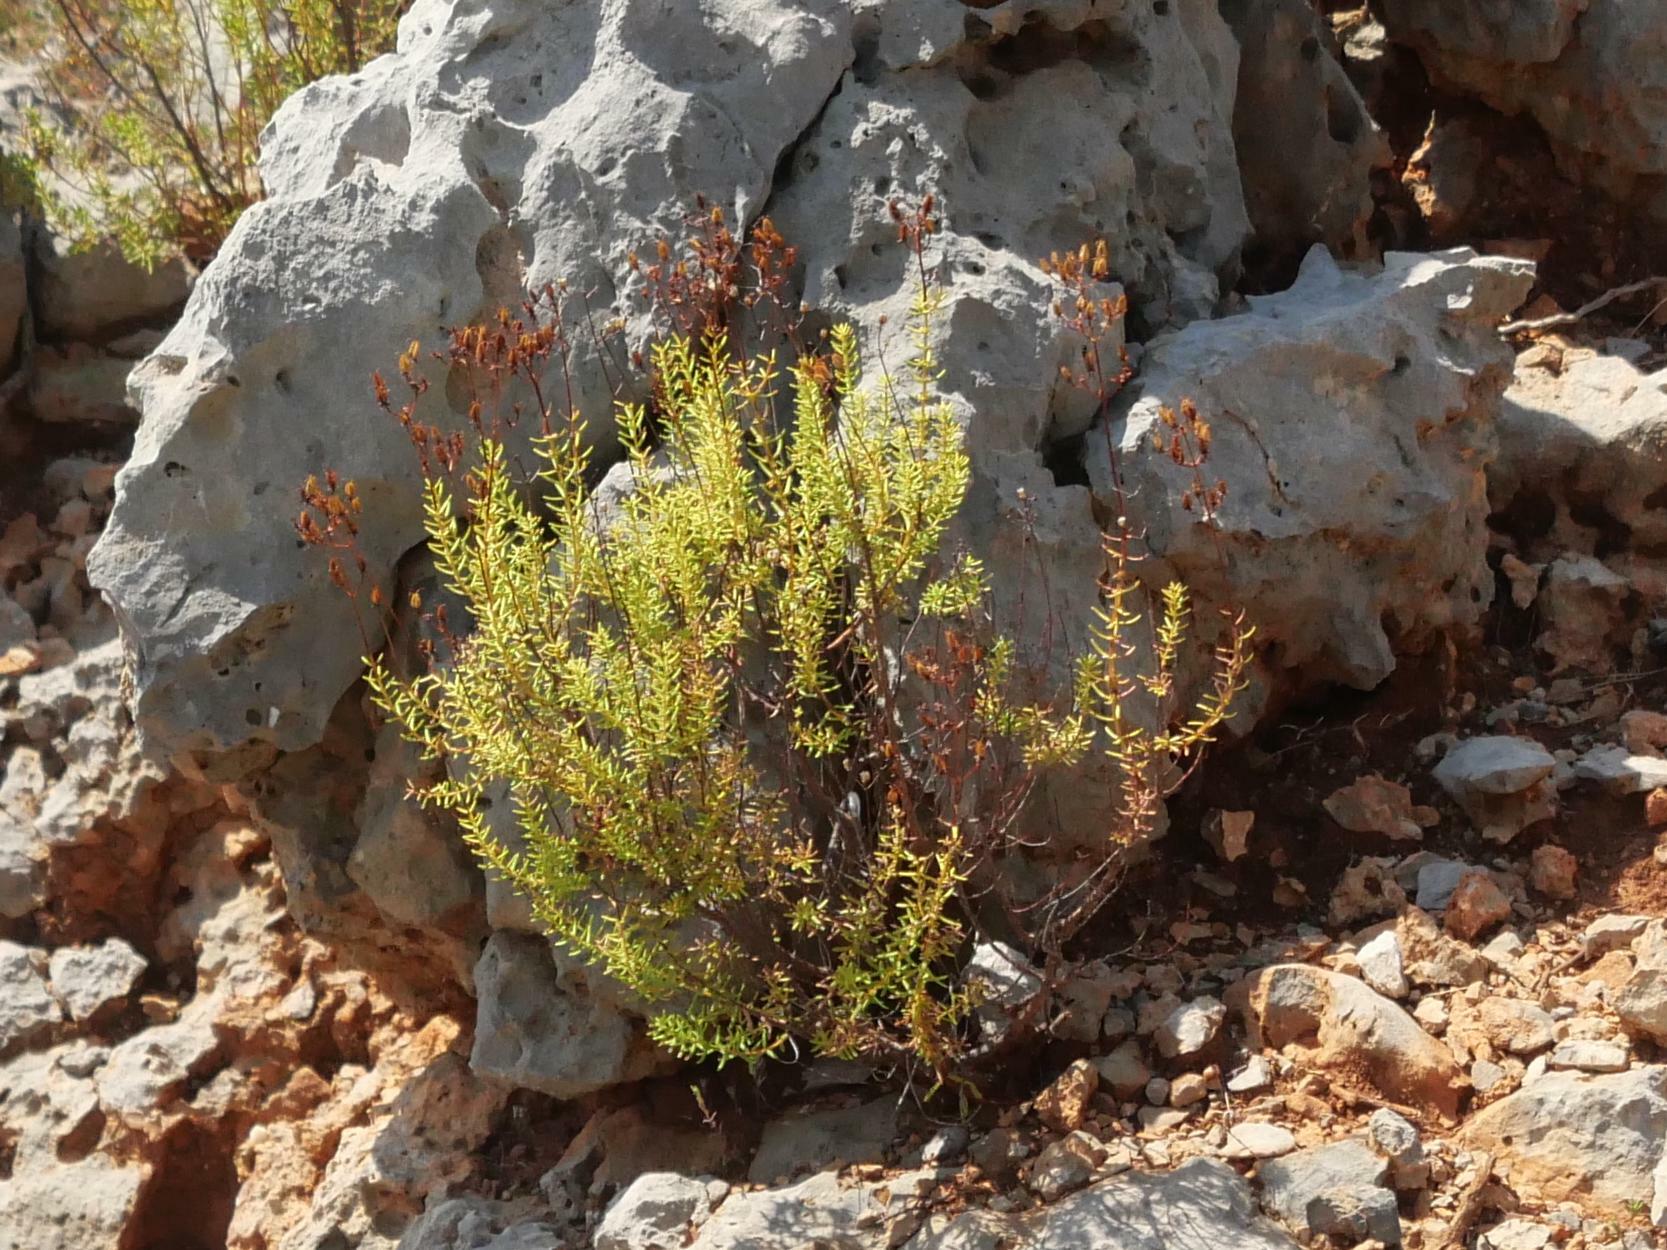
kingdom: Plantae
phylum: Tracheophyta
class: Magnoliopsida
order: Malpighiales
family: Hypericaceae
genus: Hypericum
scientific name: Hypericum empetrifolium
